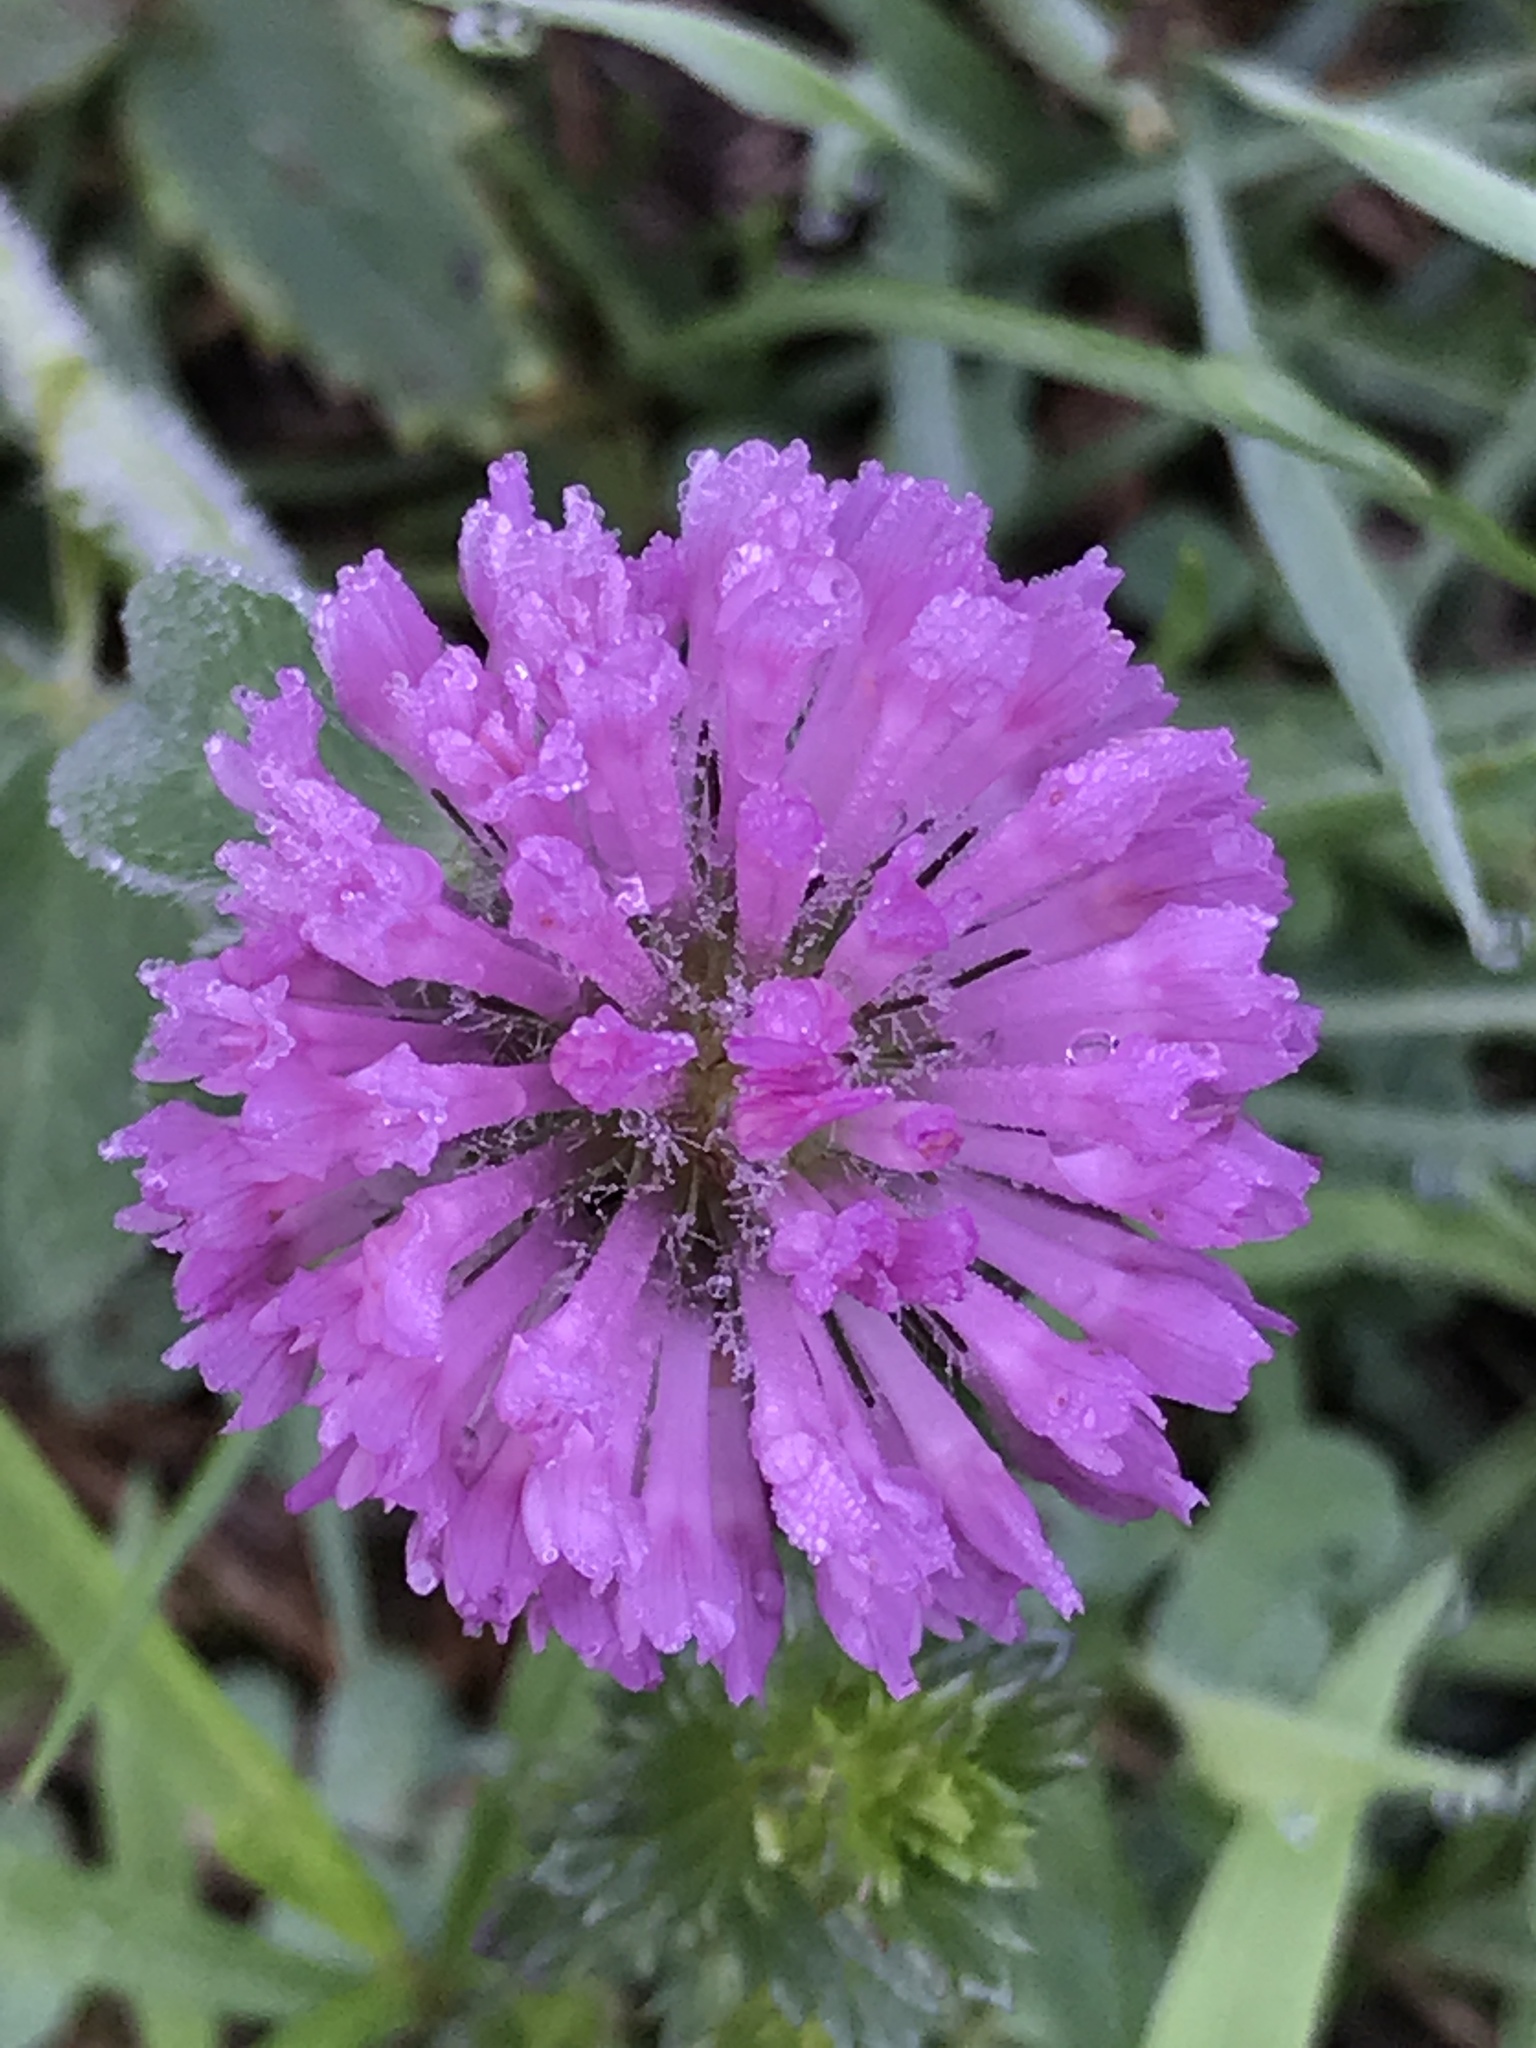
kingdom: Plantae
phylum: Tracheophyta
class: Magnoliopsida
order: Fabales
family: Fabaceae
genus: Trifolium
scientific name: Trifolium pratense
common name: Red clover
